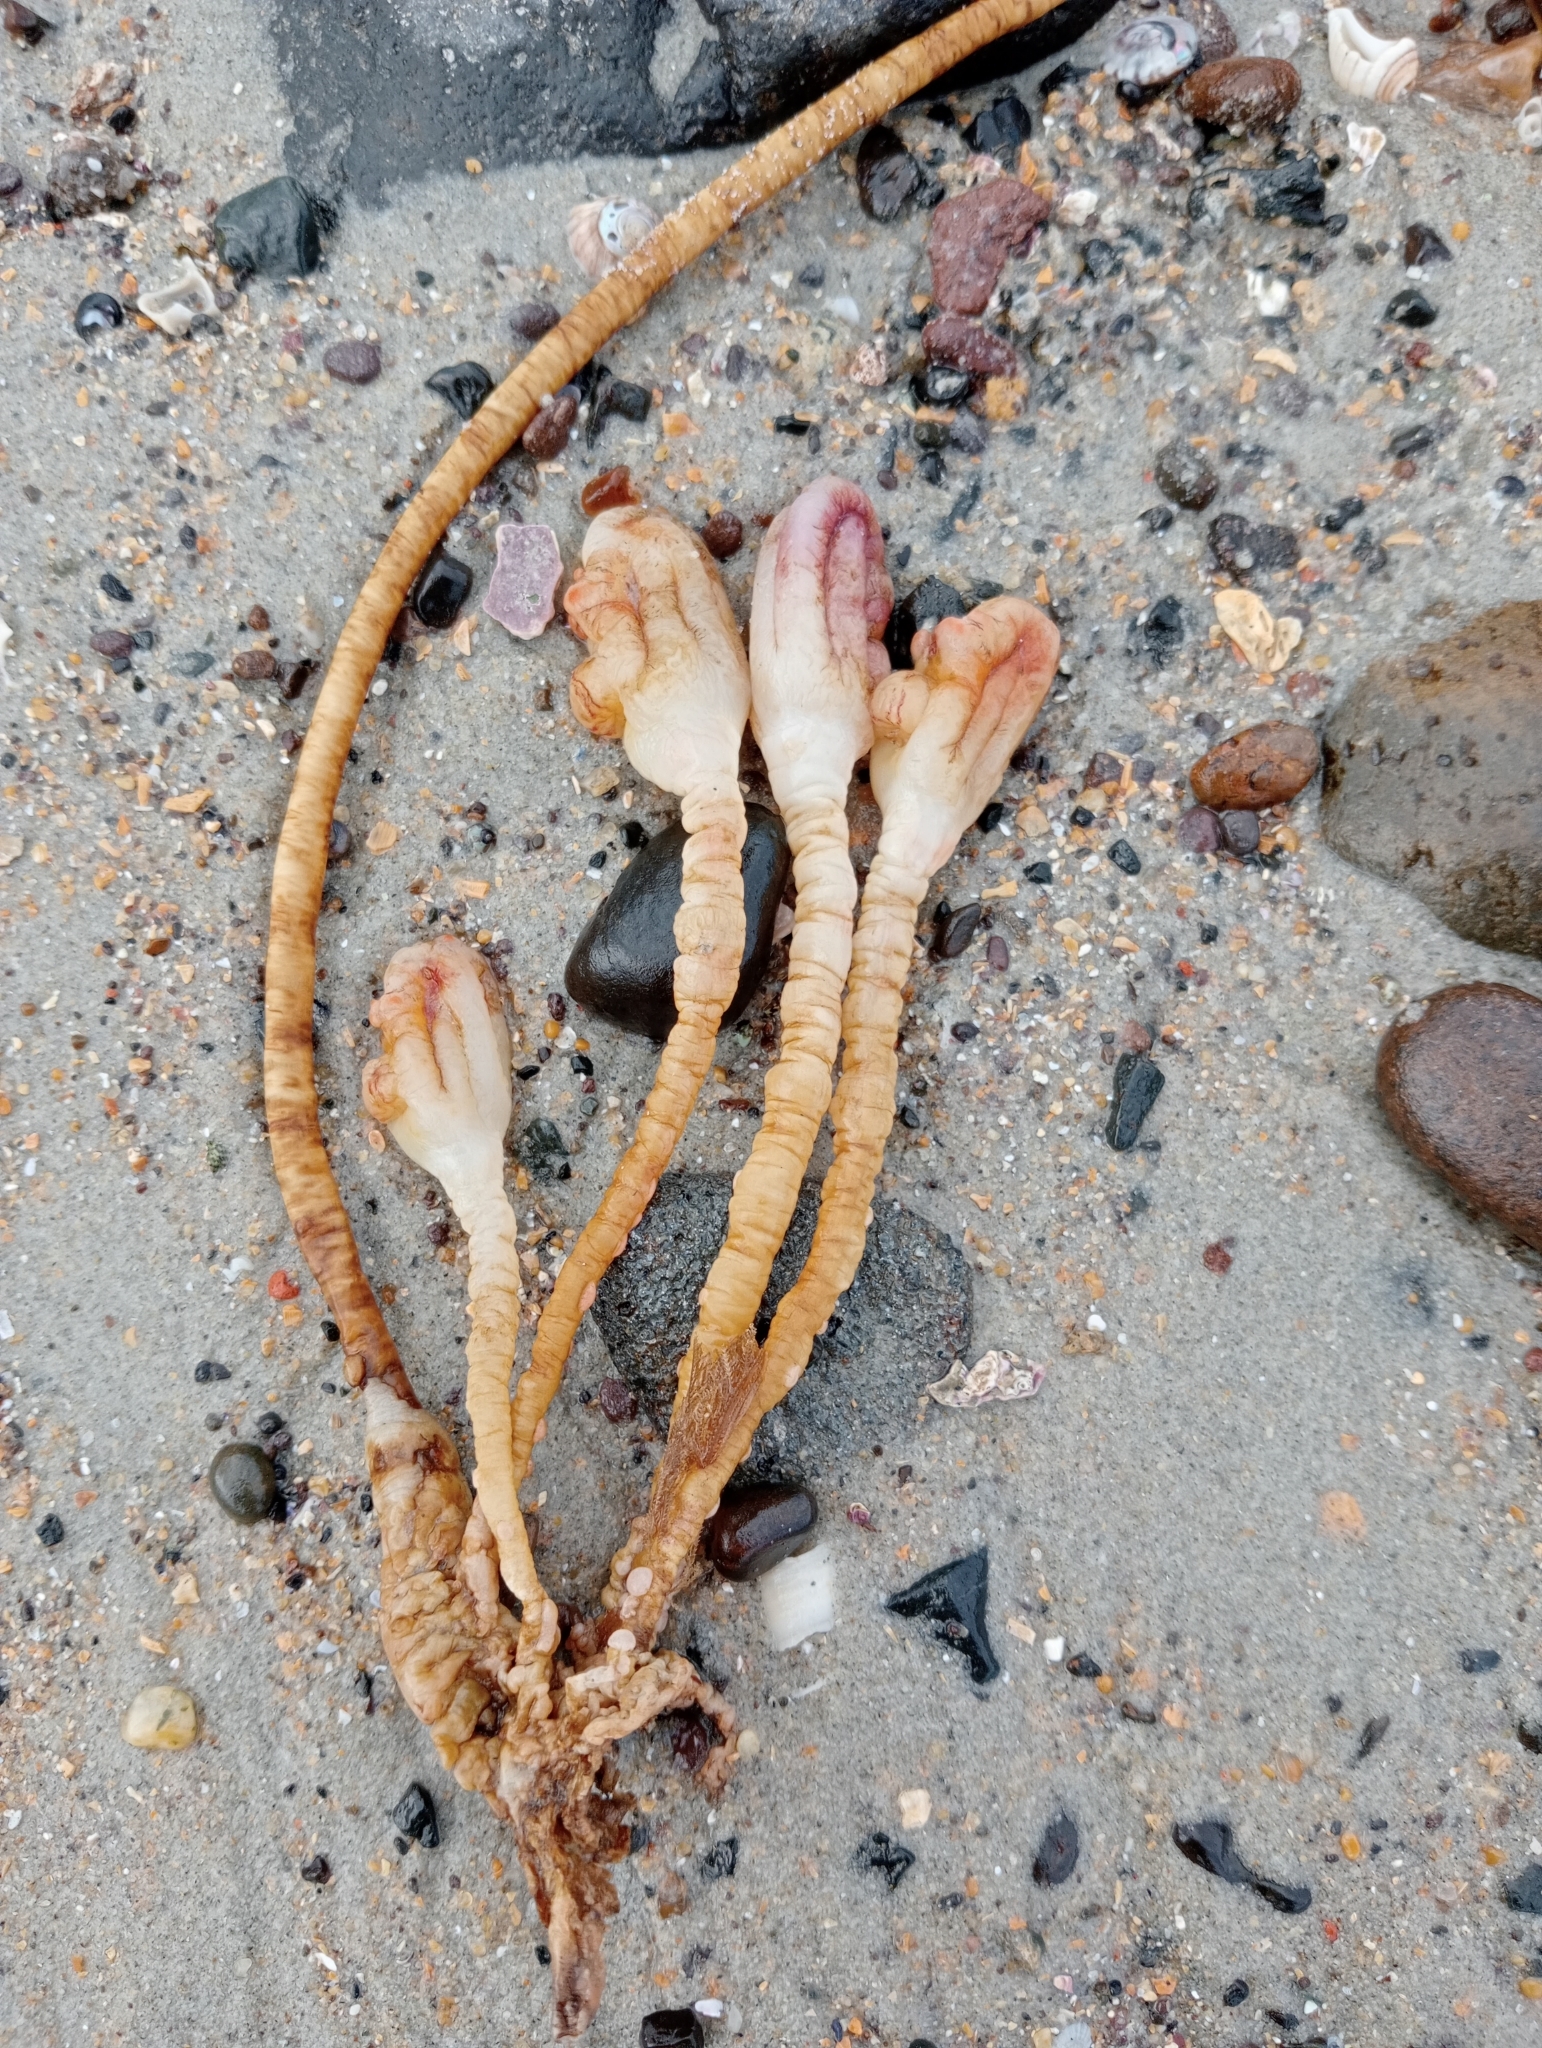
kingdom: Animalia
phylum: Chordata
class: Ascidiacea
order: Stolidobranchia
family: Pyuridae
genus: Pyura
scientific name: Pyura pachydermatina
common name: Sea tulip
